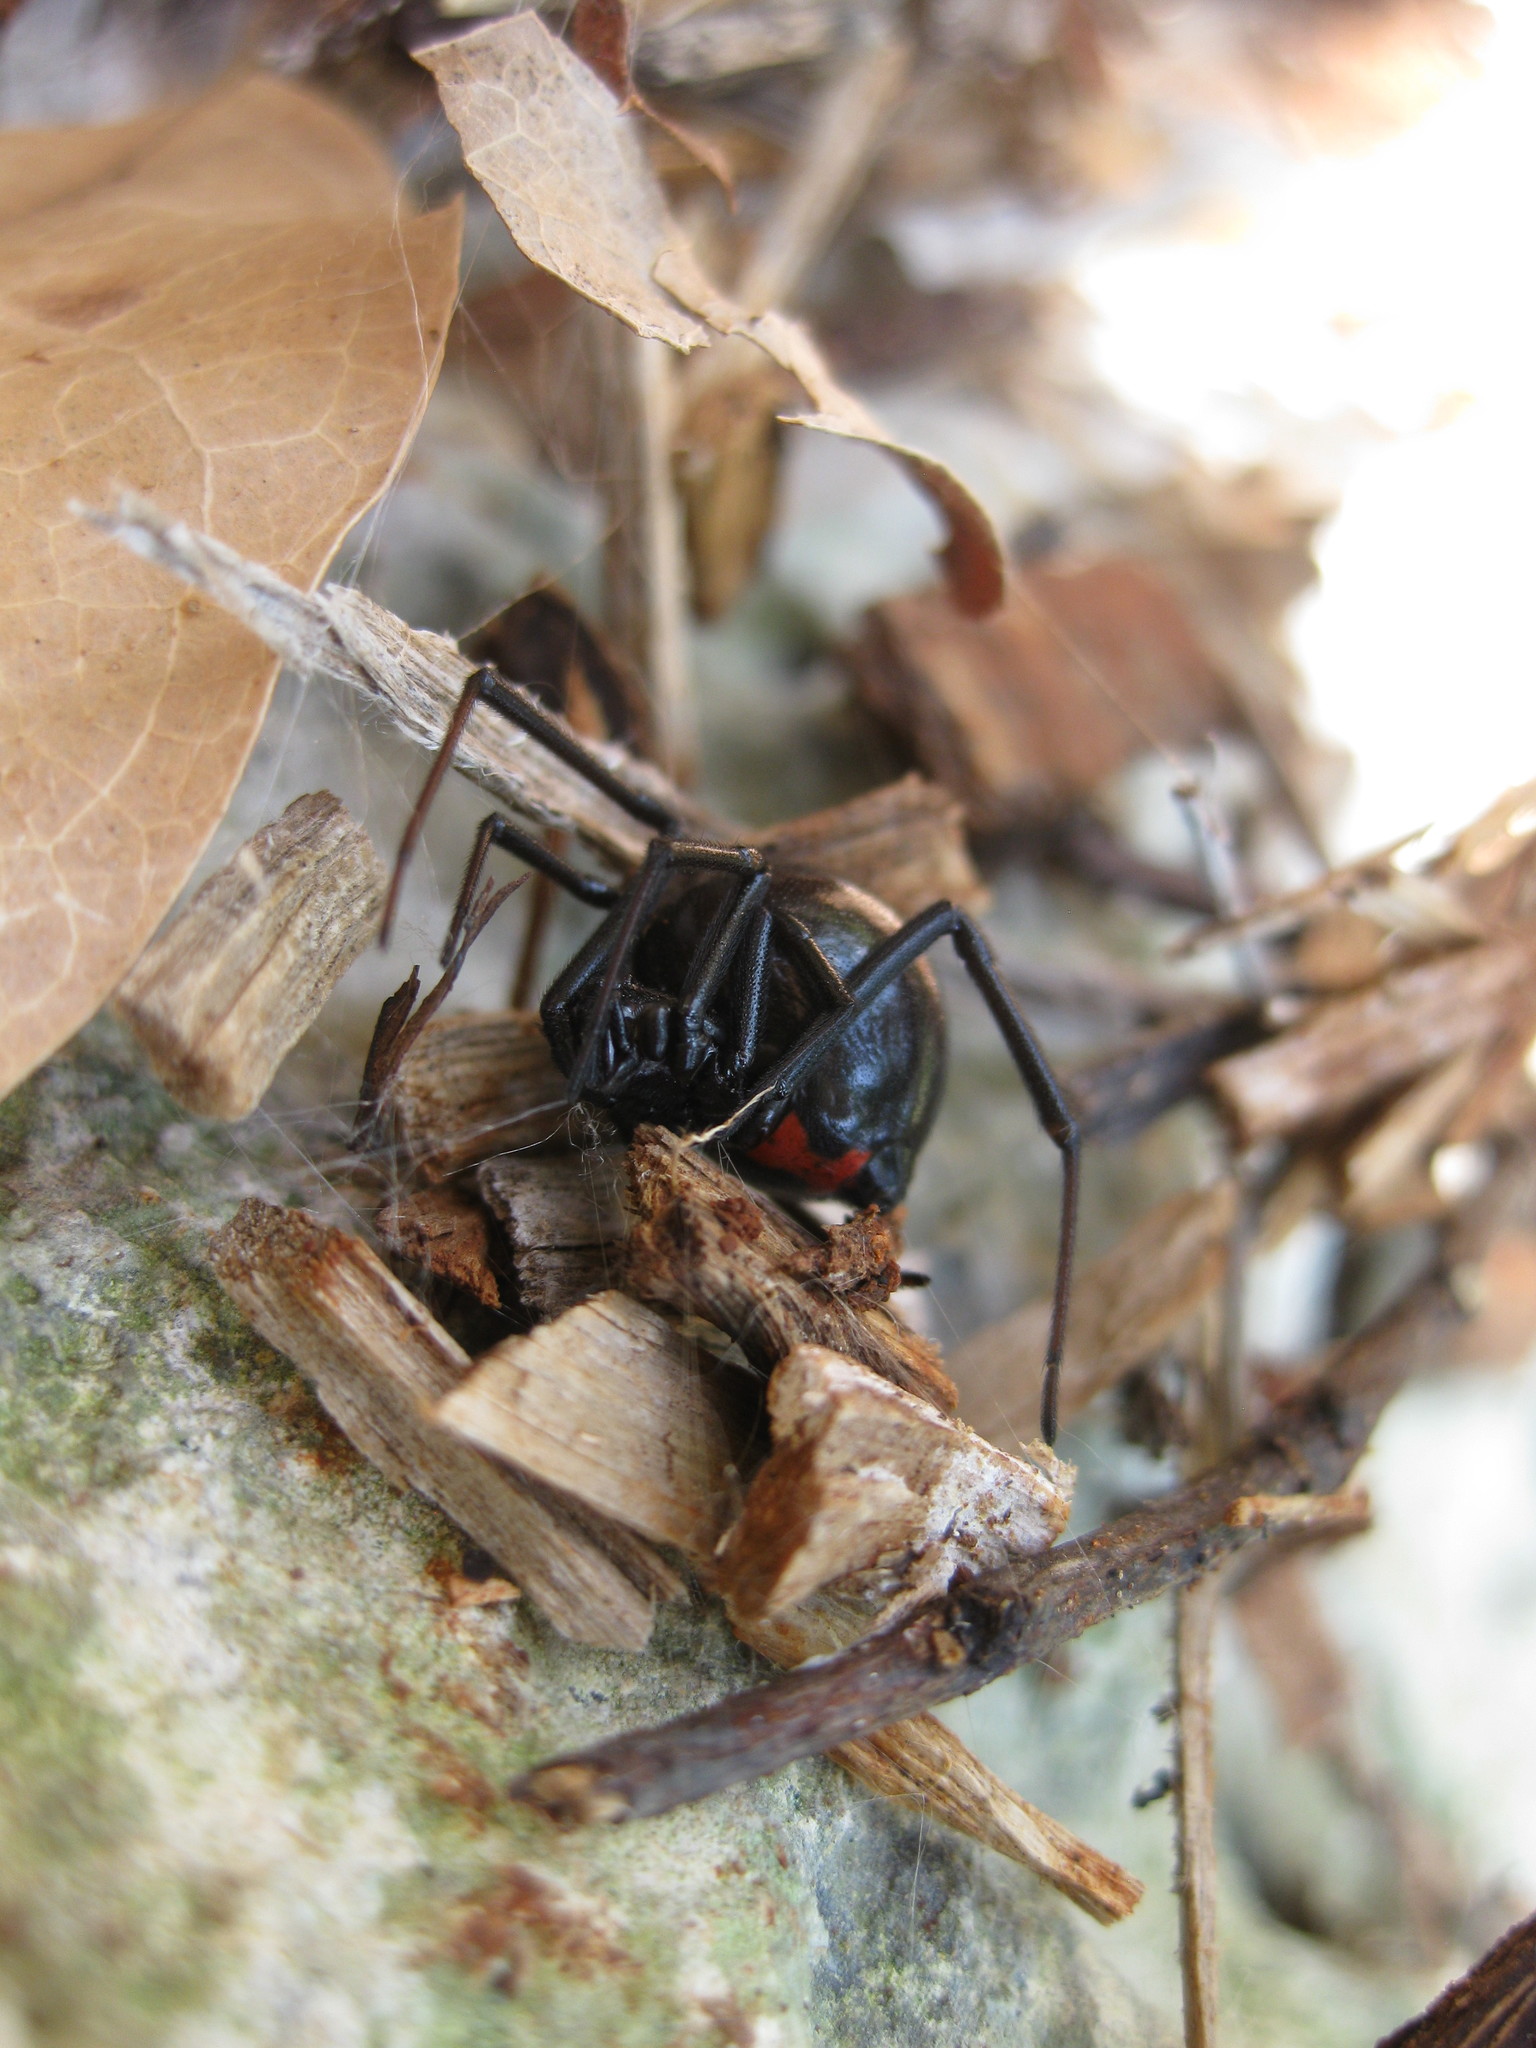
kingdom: Animalia
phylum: Arthropoda
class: Arachnida
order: Araneae
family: Theridiidae
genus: Latrodectus
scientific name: Latrodectus mactans
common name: Cobweb spiders
